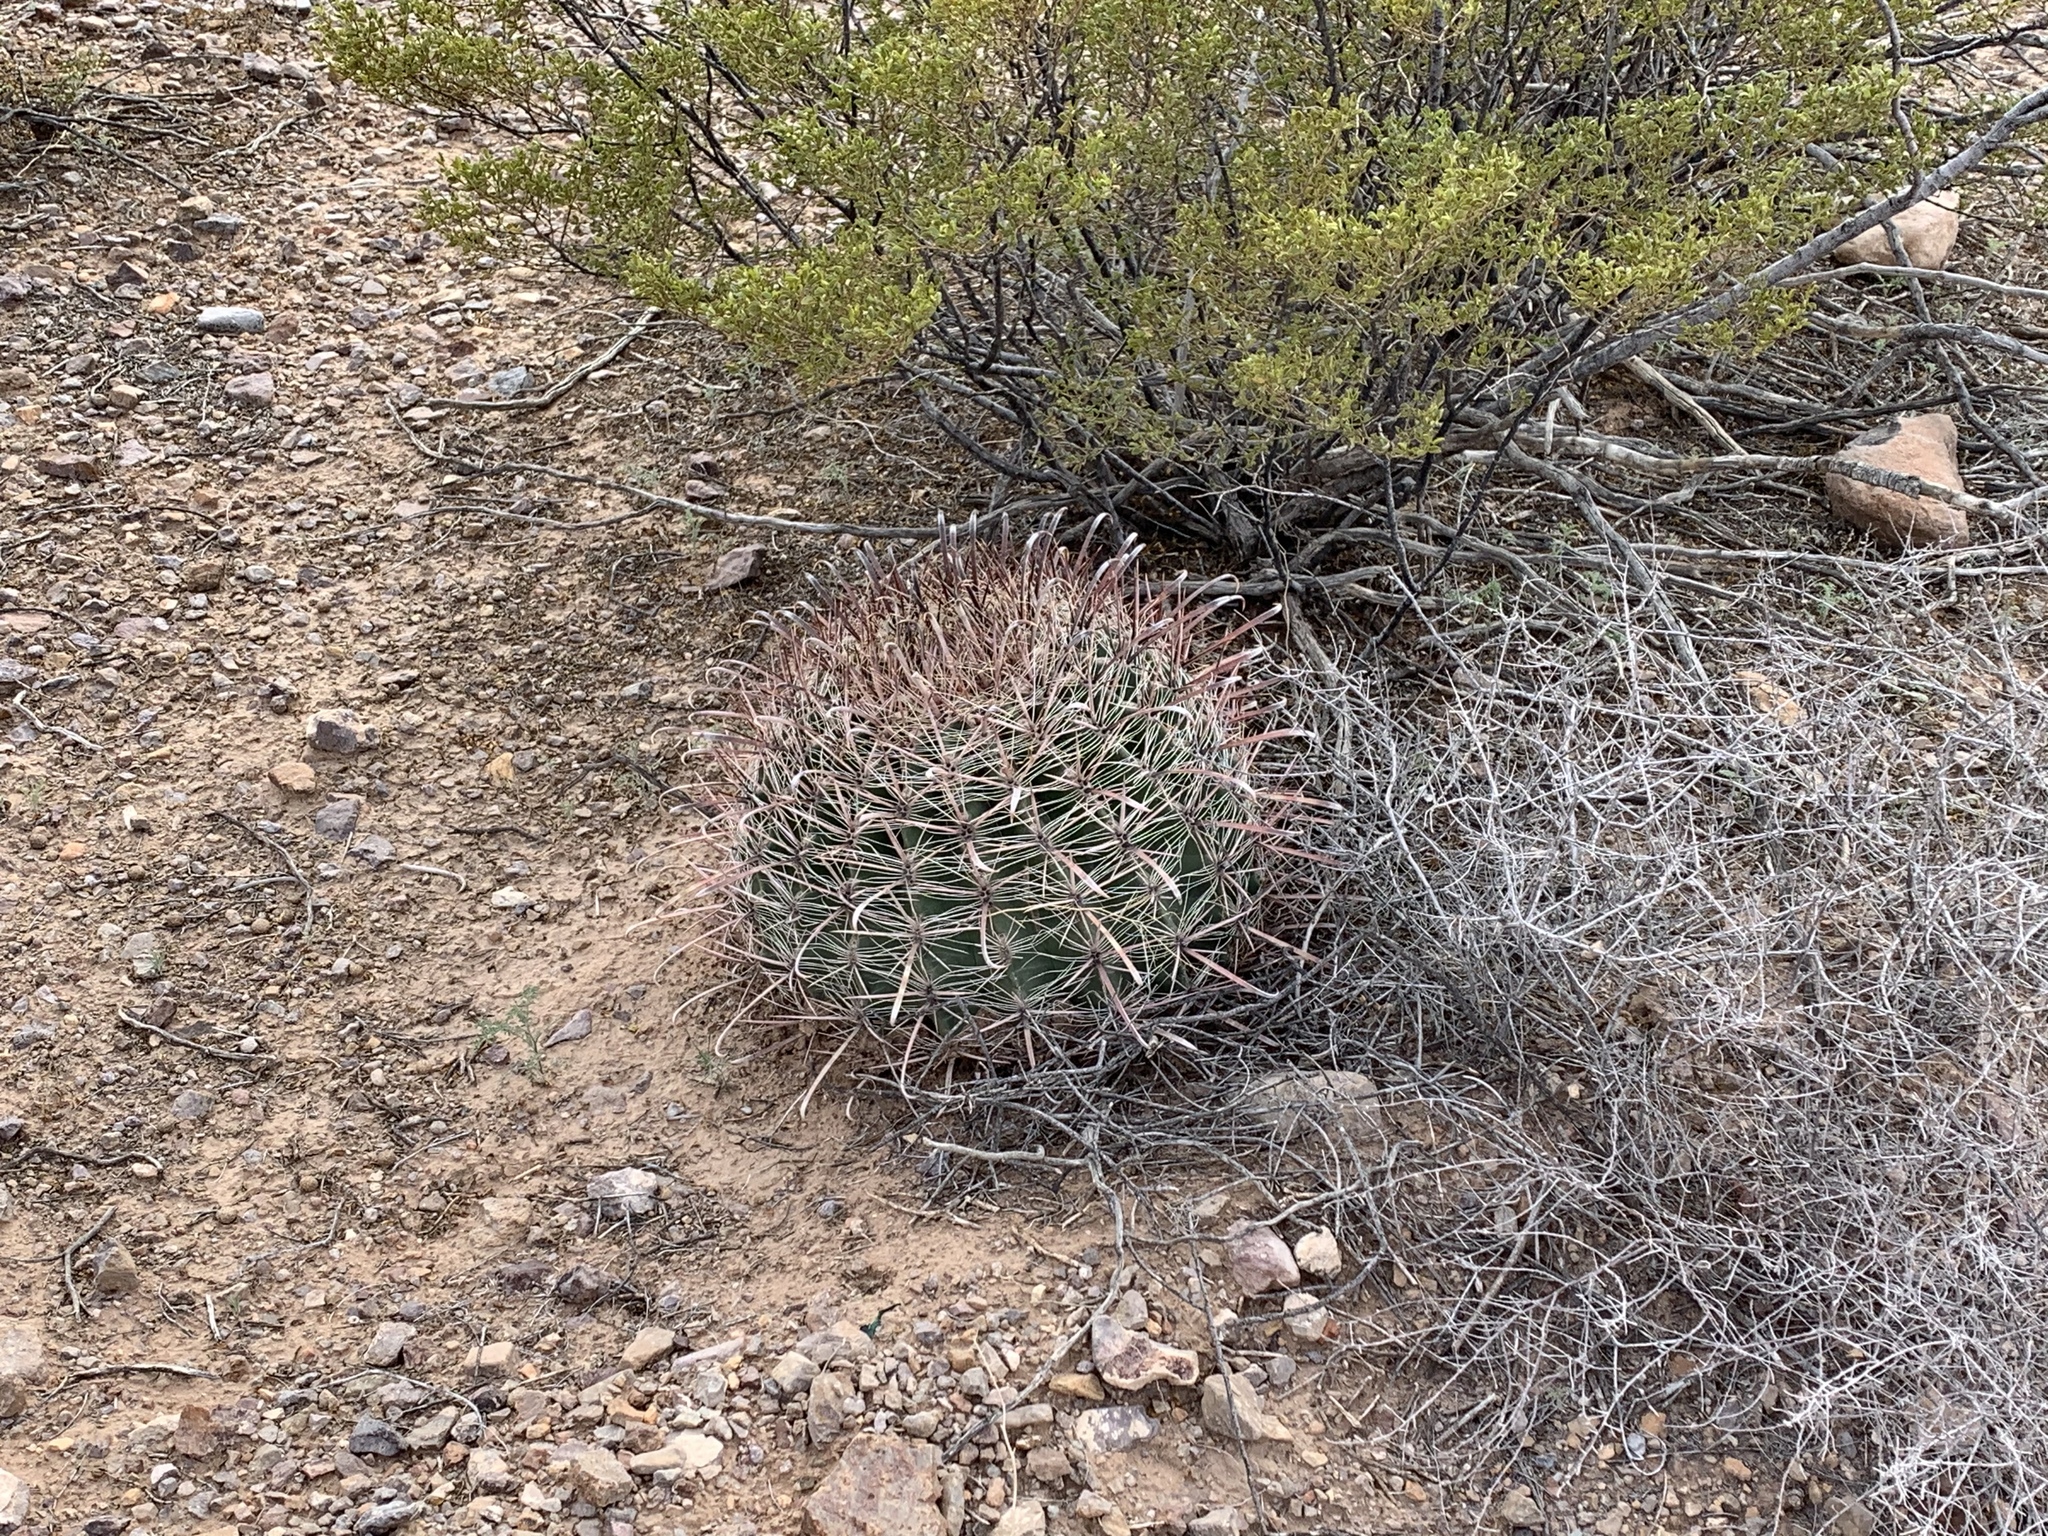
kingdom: Plantae
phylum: Tracheophyta
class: Magnoliopsida
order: Caryophyllales
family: Cactaceae
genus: Ferocactus
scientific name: Ferocactus wislizeni
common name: Candy barrel cactus
